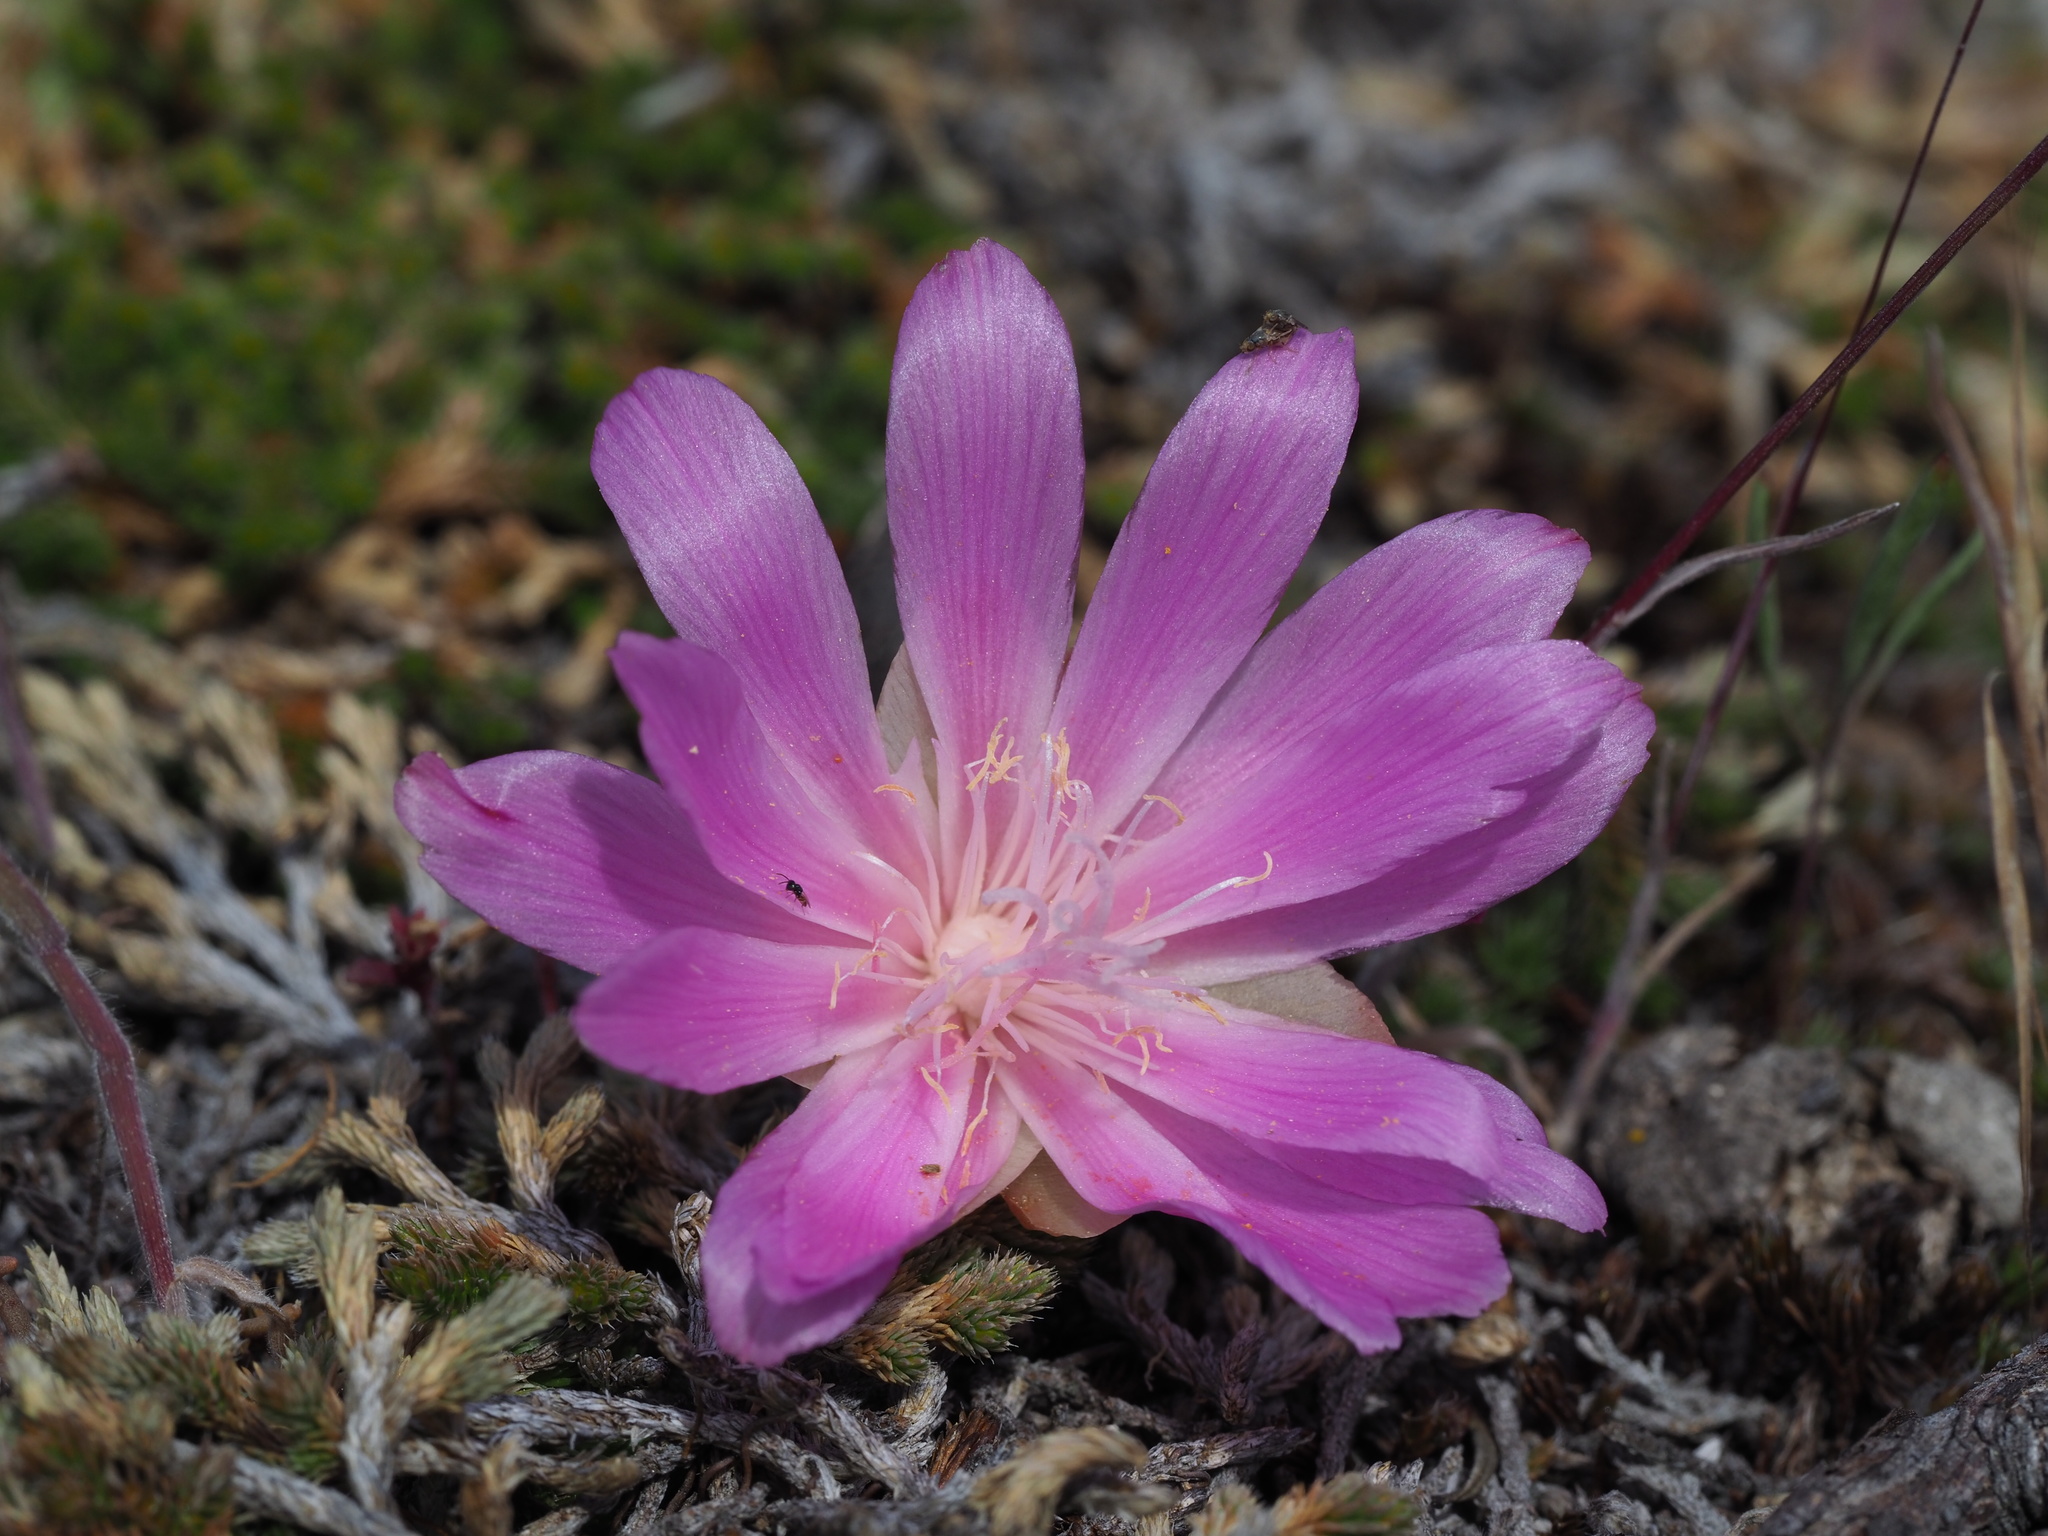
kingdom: Plantae
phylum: Tracheophyta
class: Magnoliopsida
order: Caryophyllales
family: Montiaceae
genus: Lewisia
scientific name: Lewisia rediviva
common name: Bitter-root
